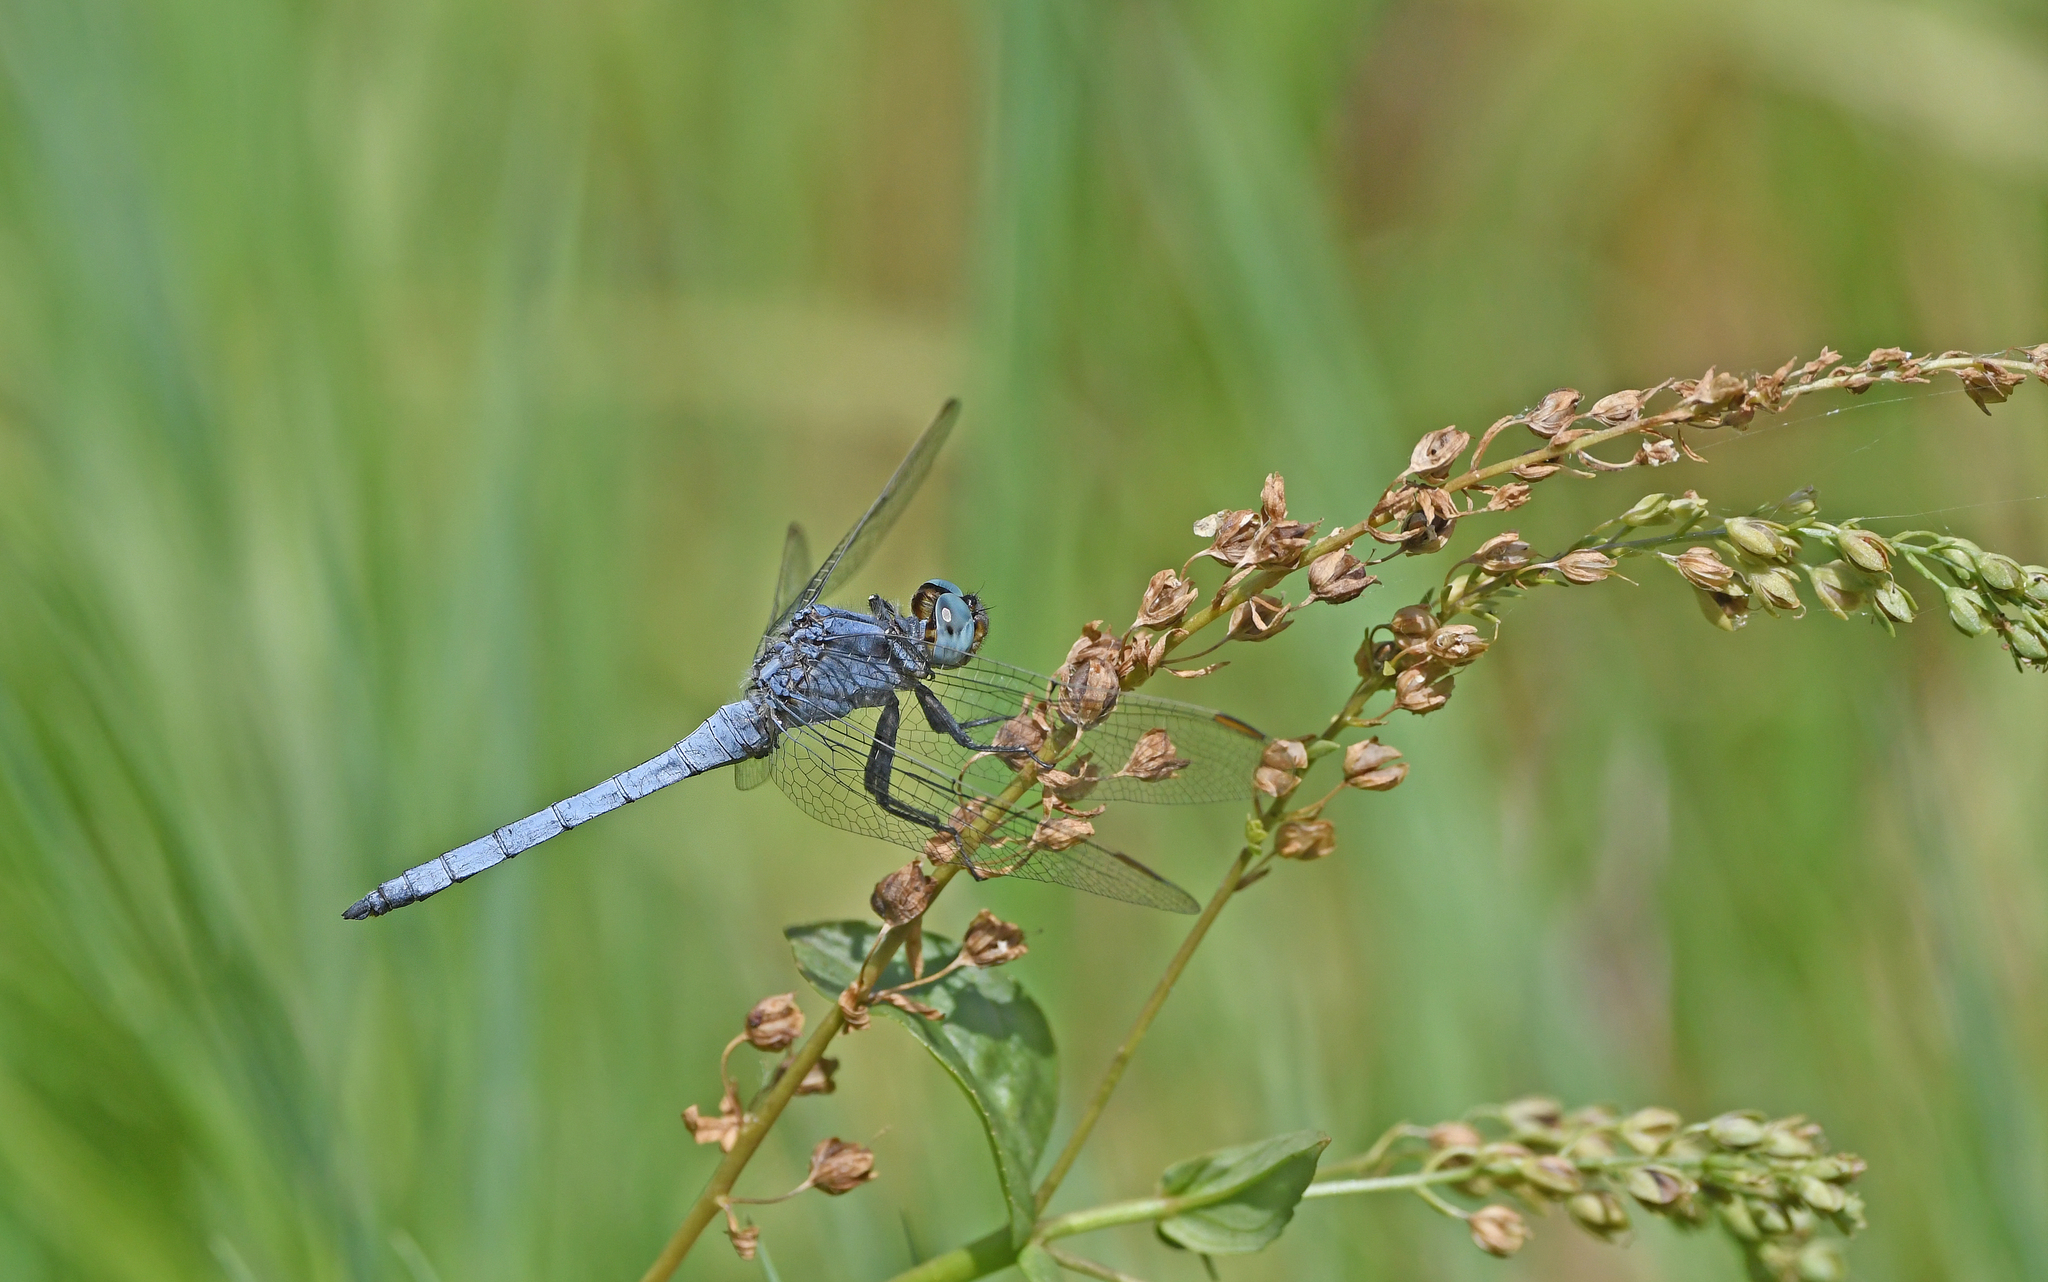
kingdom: Animalia
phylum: Arthropoda
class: Insecta
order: Odonata
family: Libellulidae
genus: Orthetrum
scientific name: Orthetrum coerulescens
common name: Keeled skimmer
